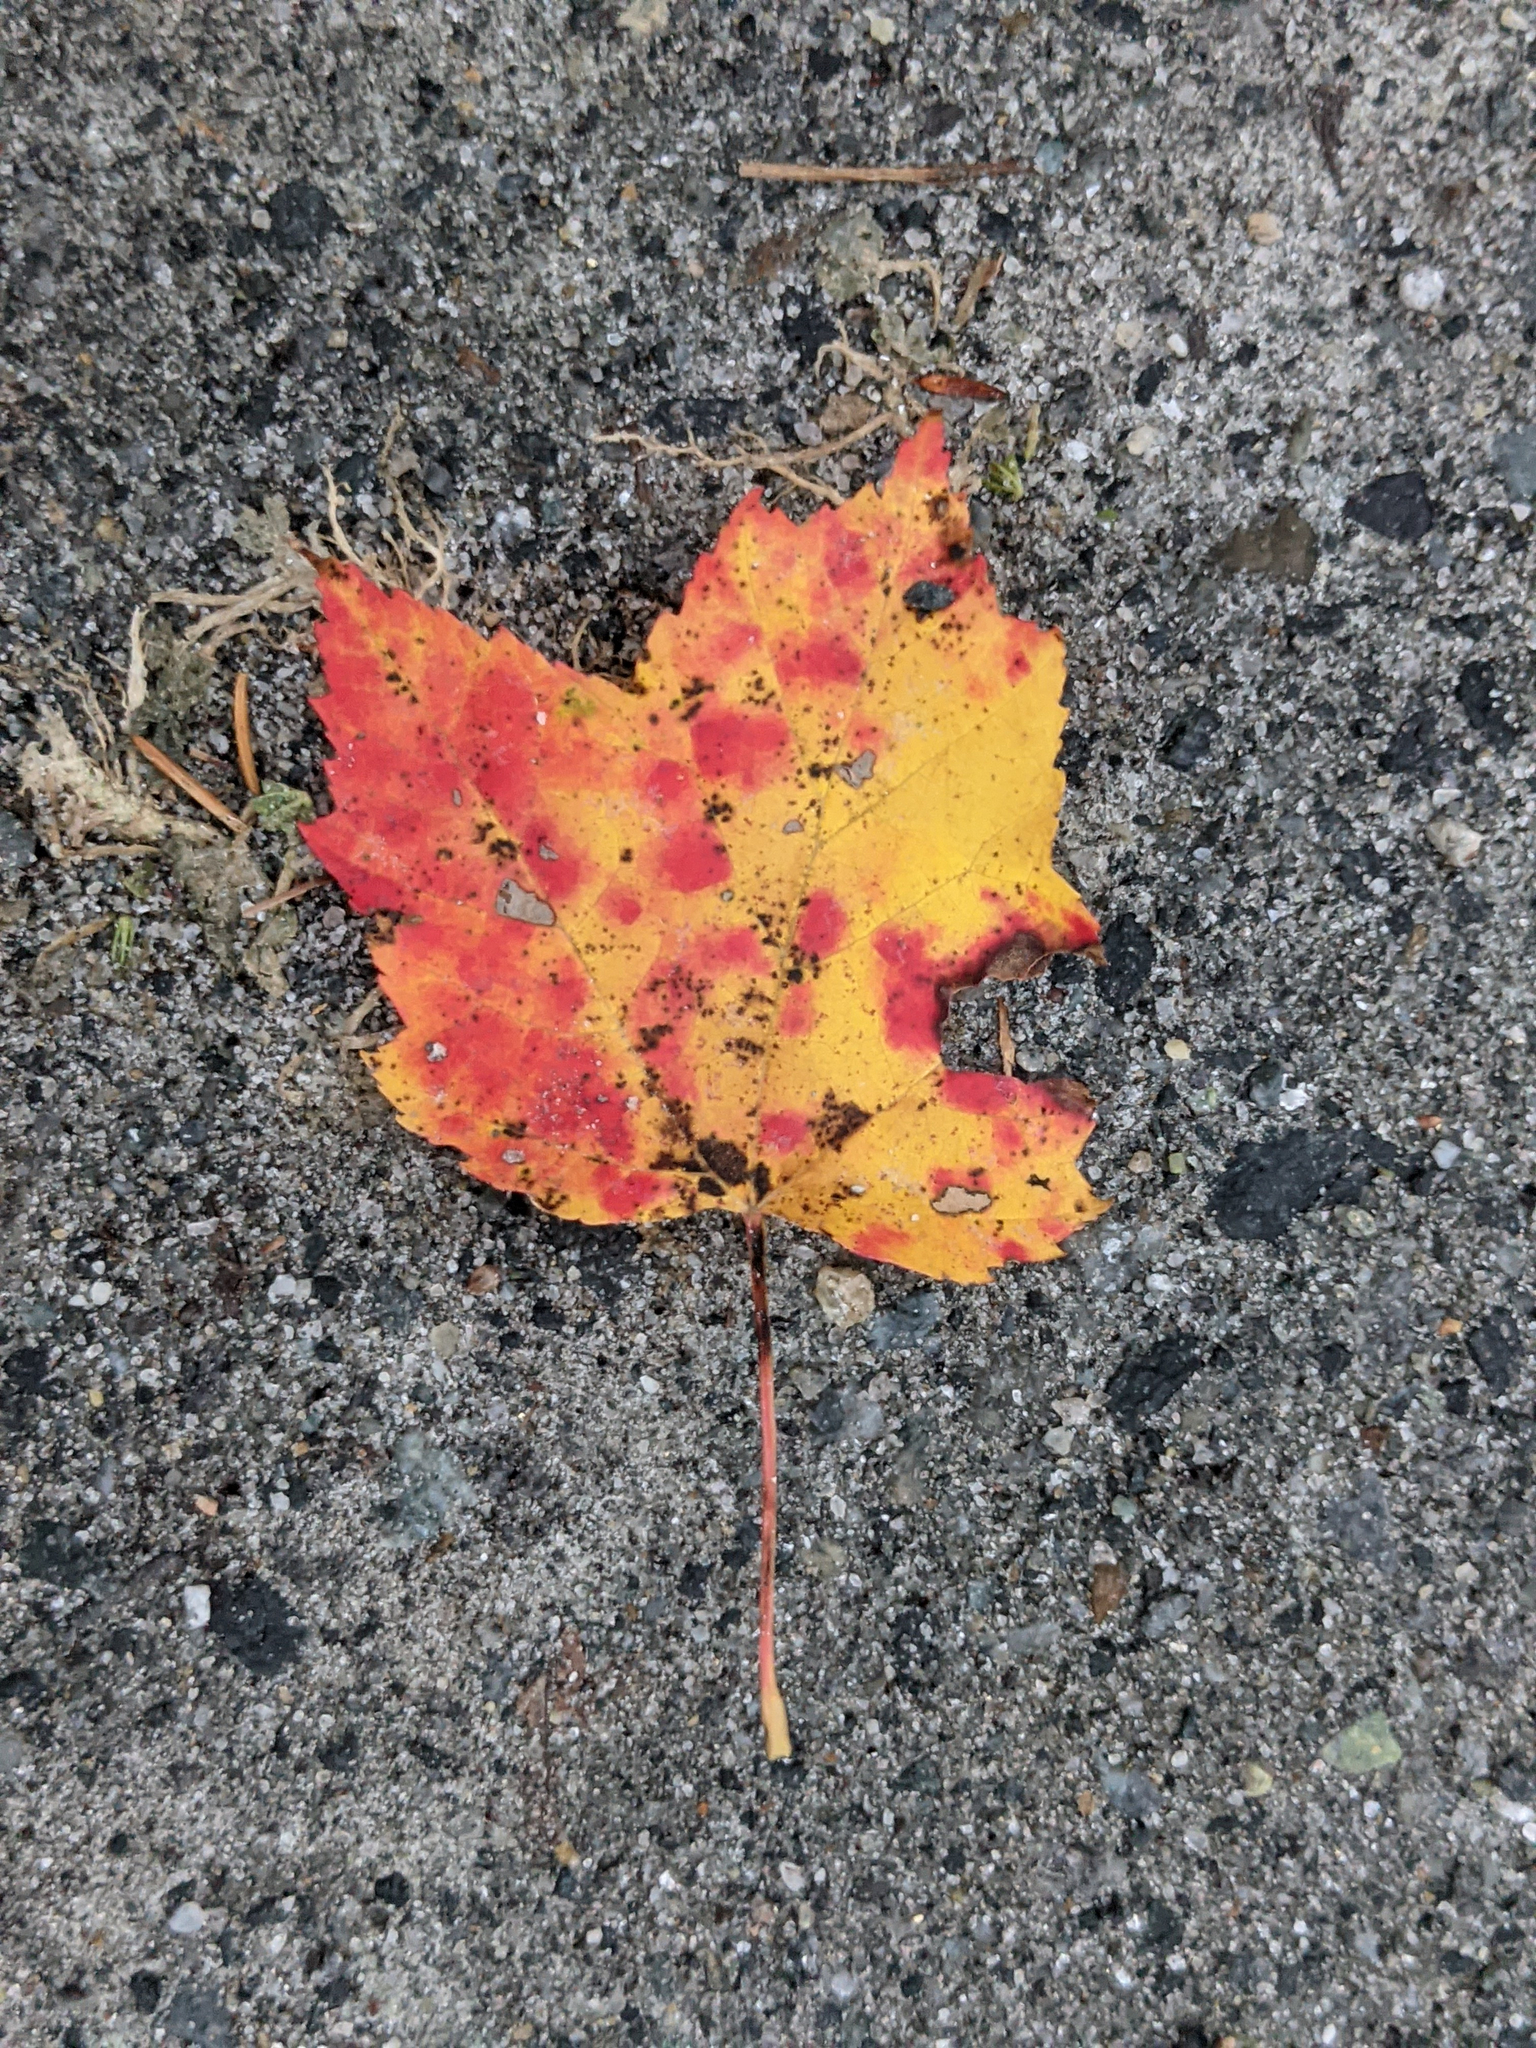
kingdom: Plantae
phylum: Tracheophyta
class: Magnoliopsida
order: Sapindales
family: Sapindaceae
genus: Acer
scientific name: Acer rubrum
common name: Red maple
